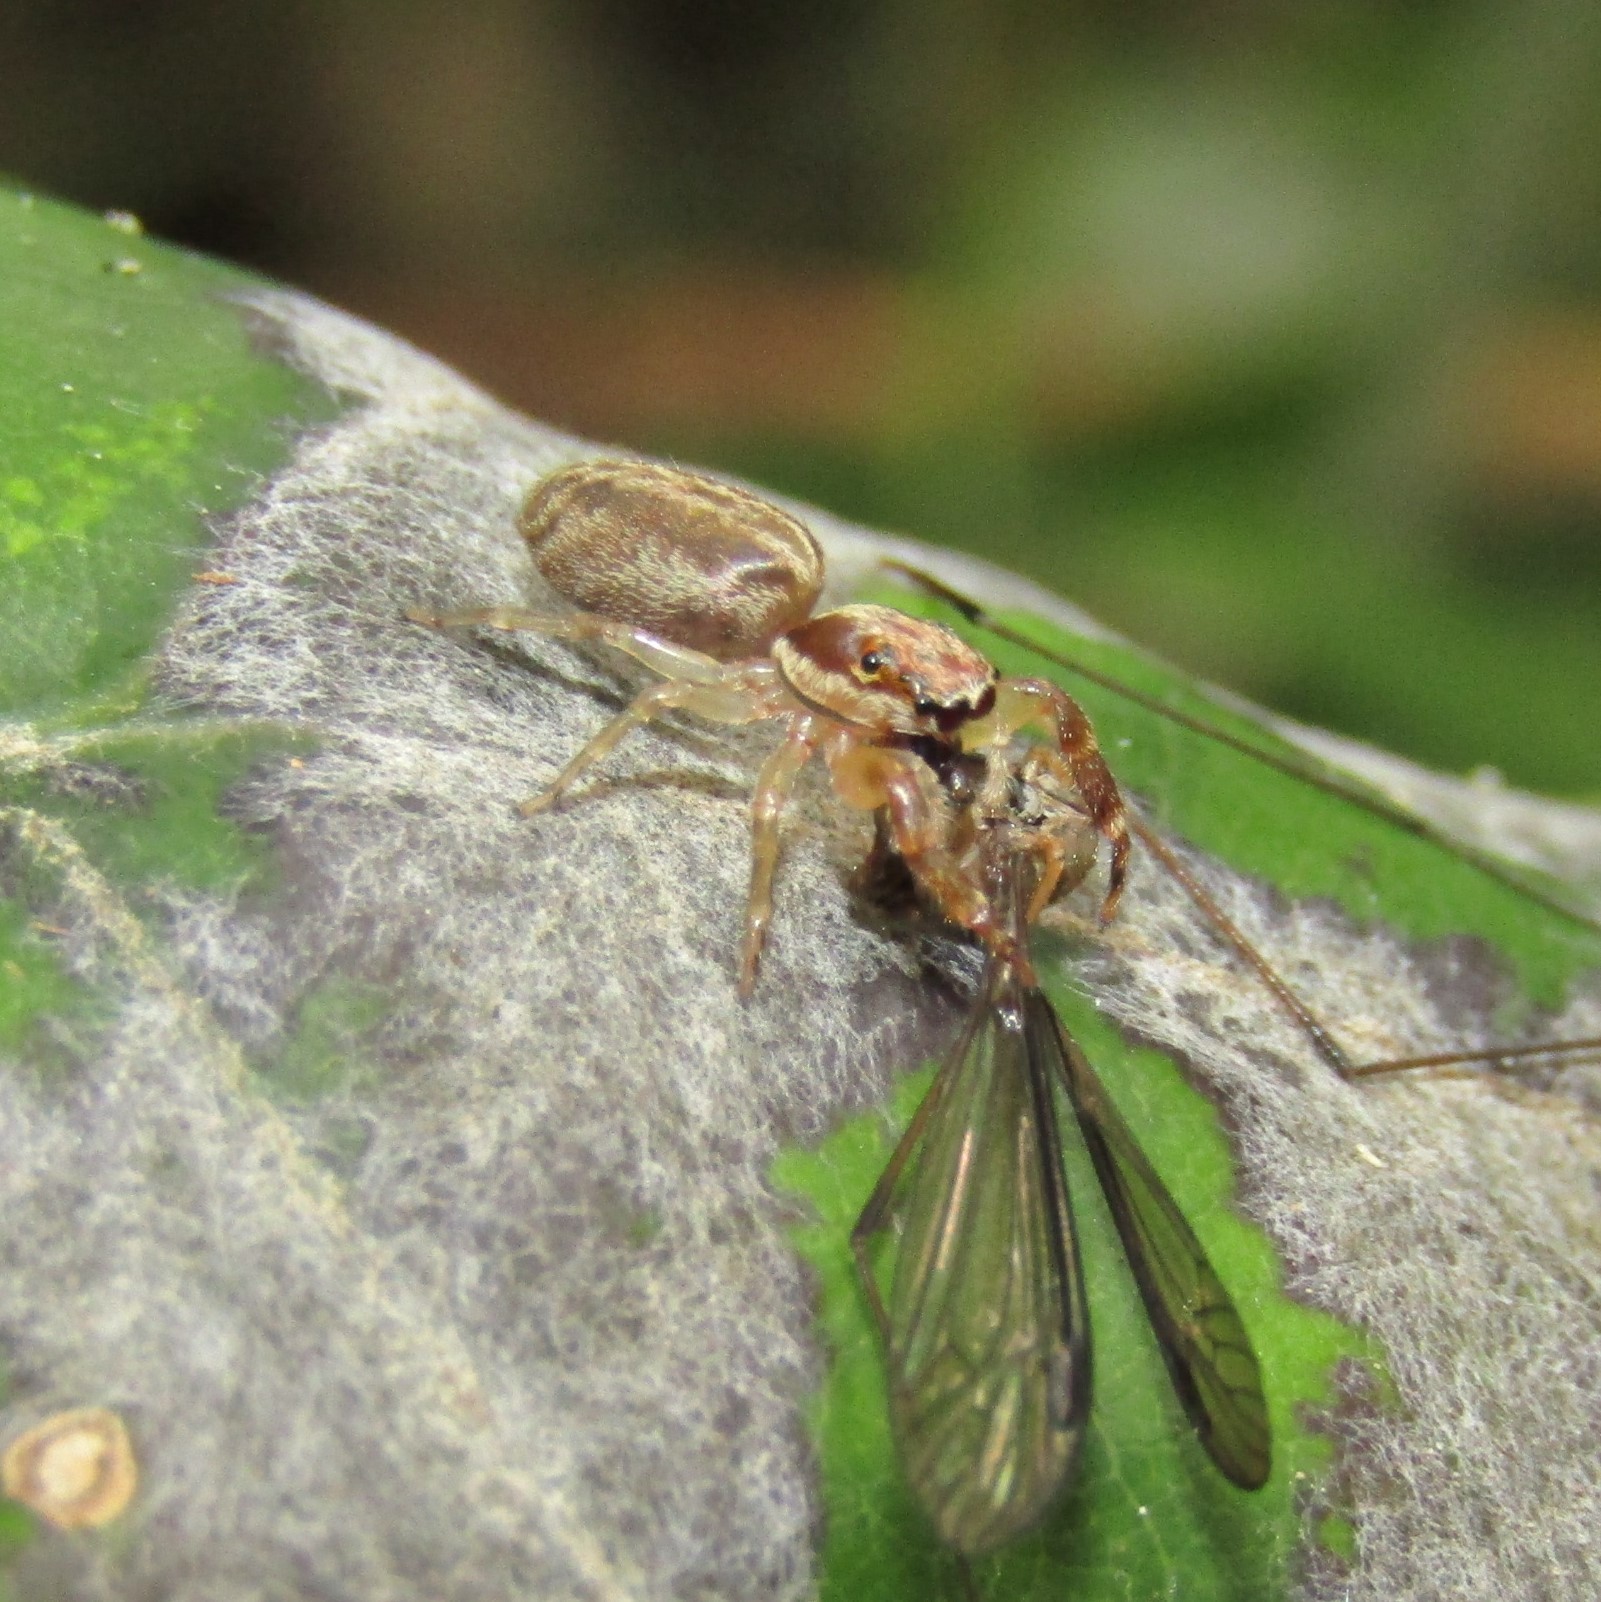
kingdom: Animalia
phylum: Arthropoda
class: Arachnida
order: Araneae
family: Salticidae
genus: Trite
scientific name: Trite mustilina
